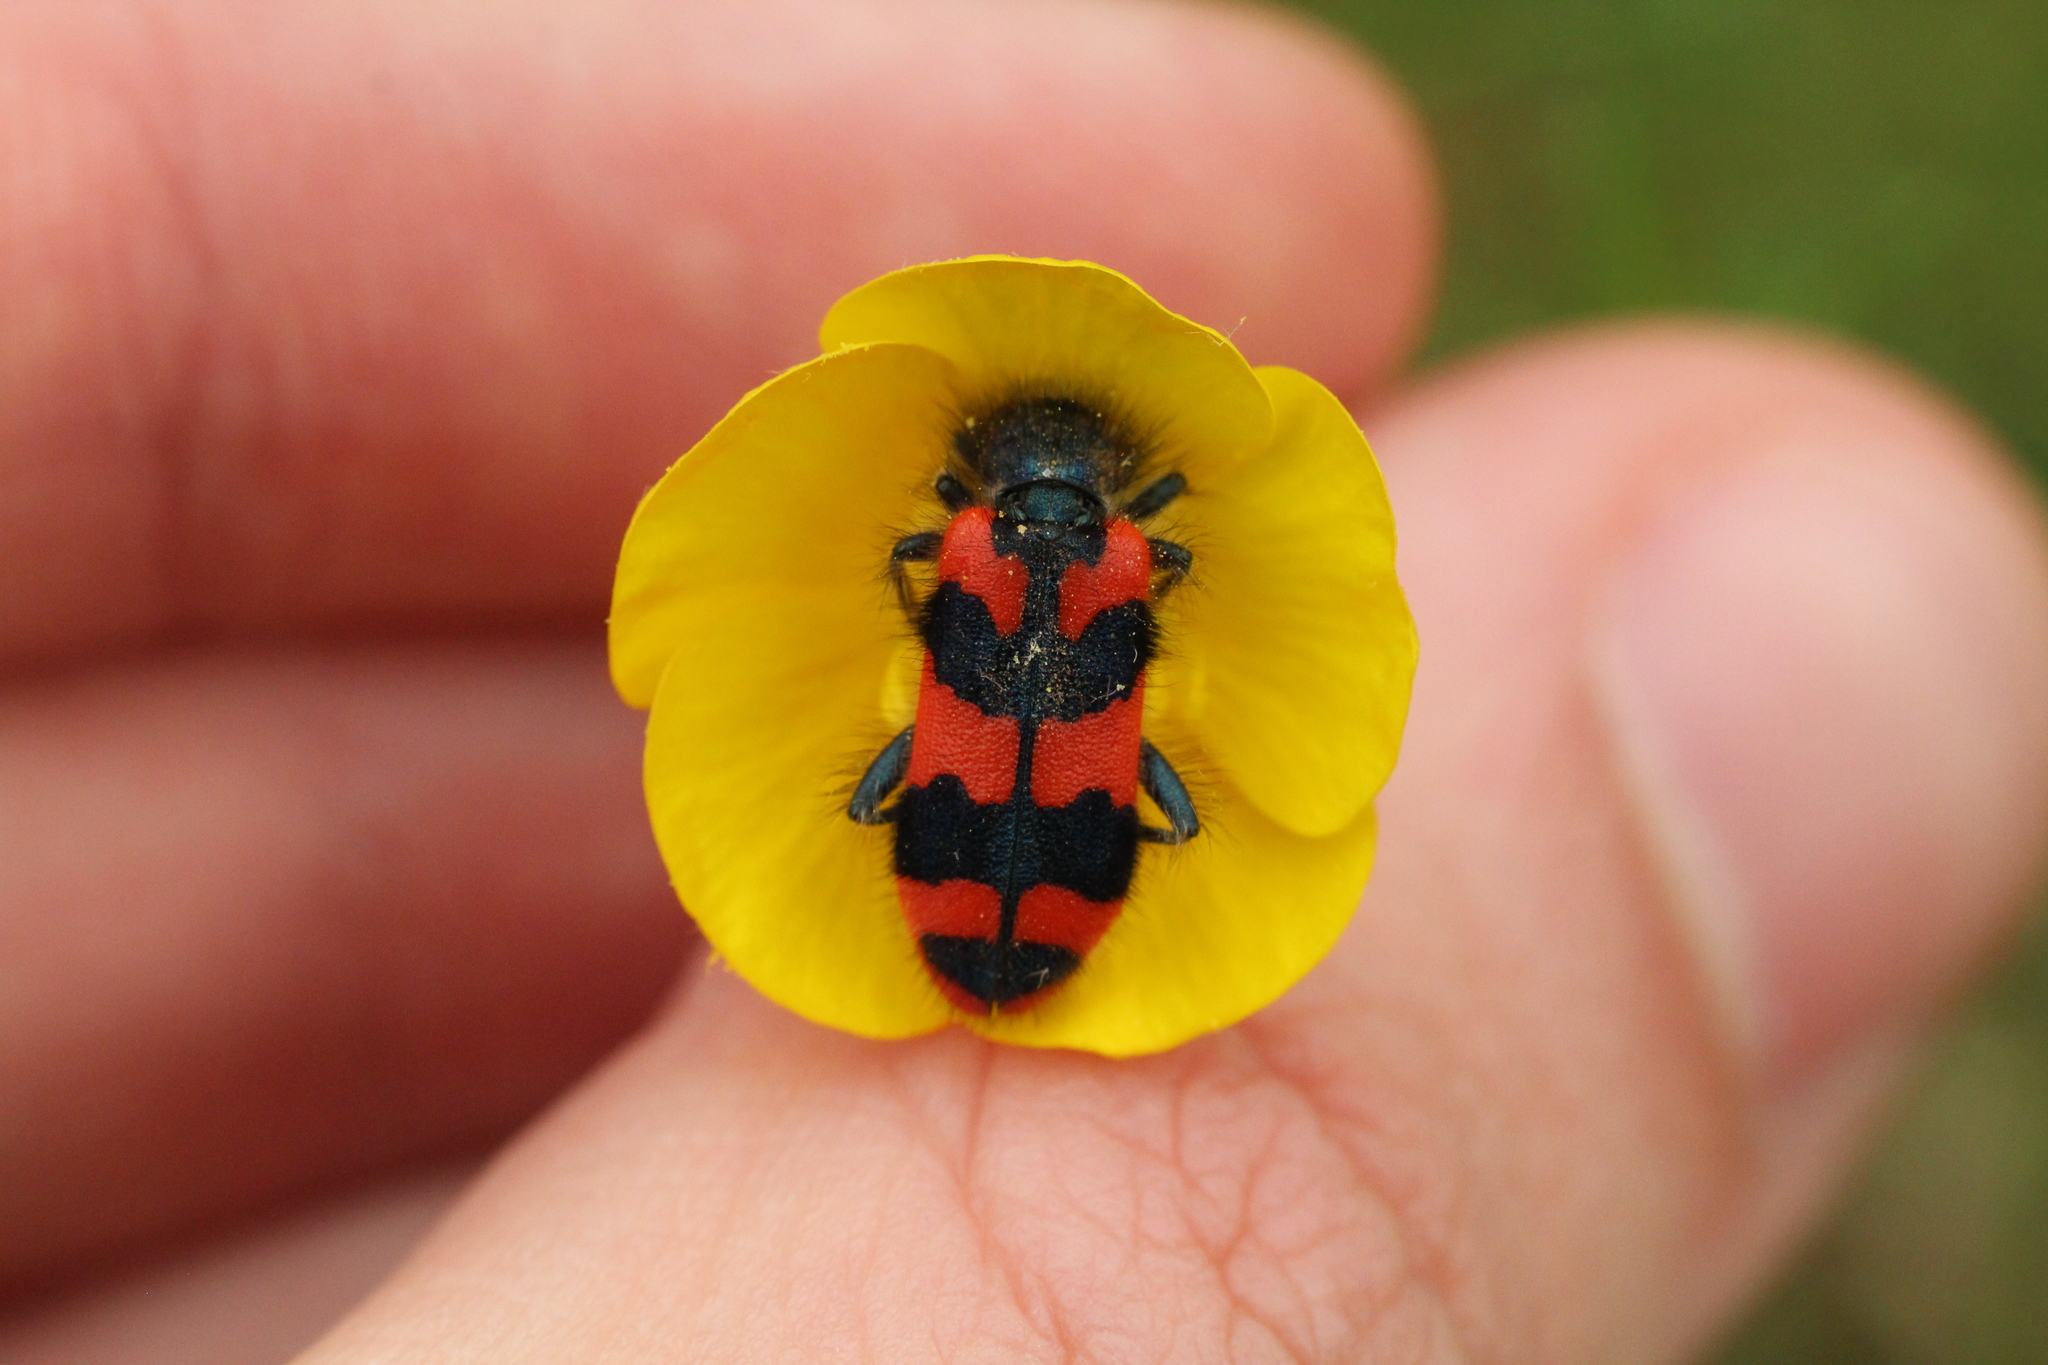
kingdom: Animalia
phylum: Arthropoda
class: Insecta
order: Coleoptera
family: Cleridae
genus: Trichodes
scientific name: Trichodes alvearius
